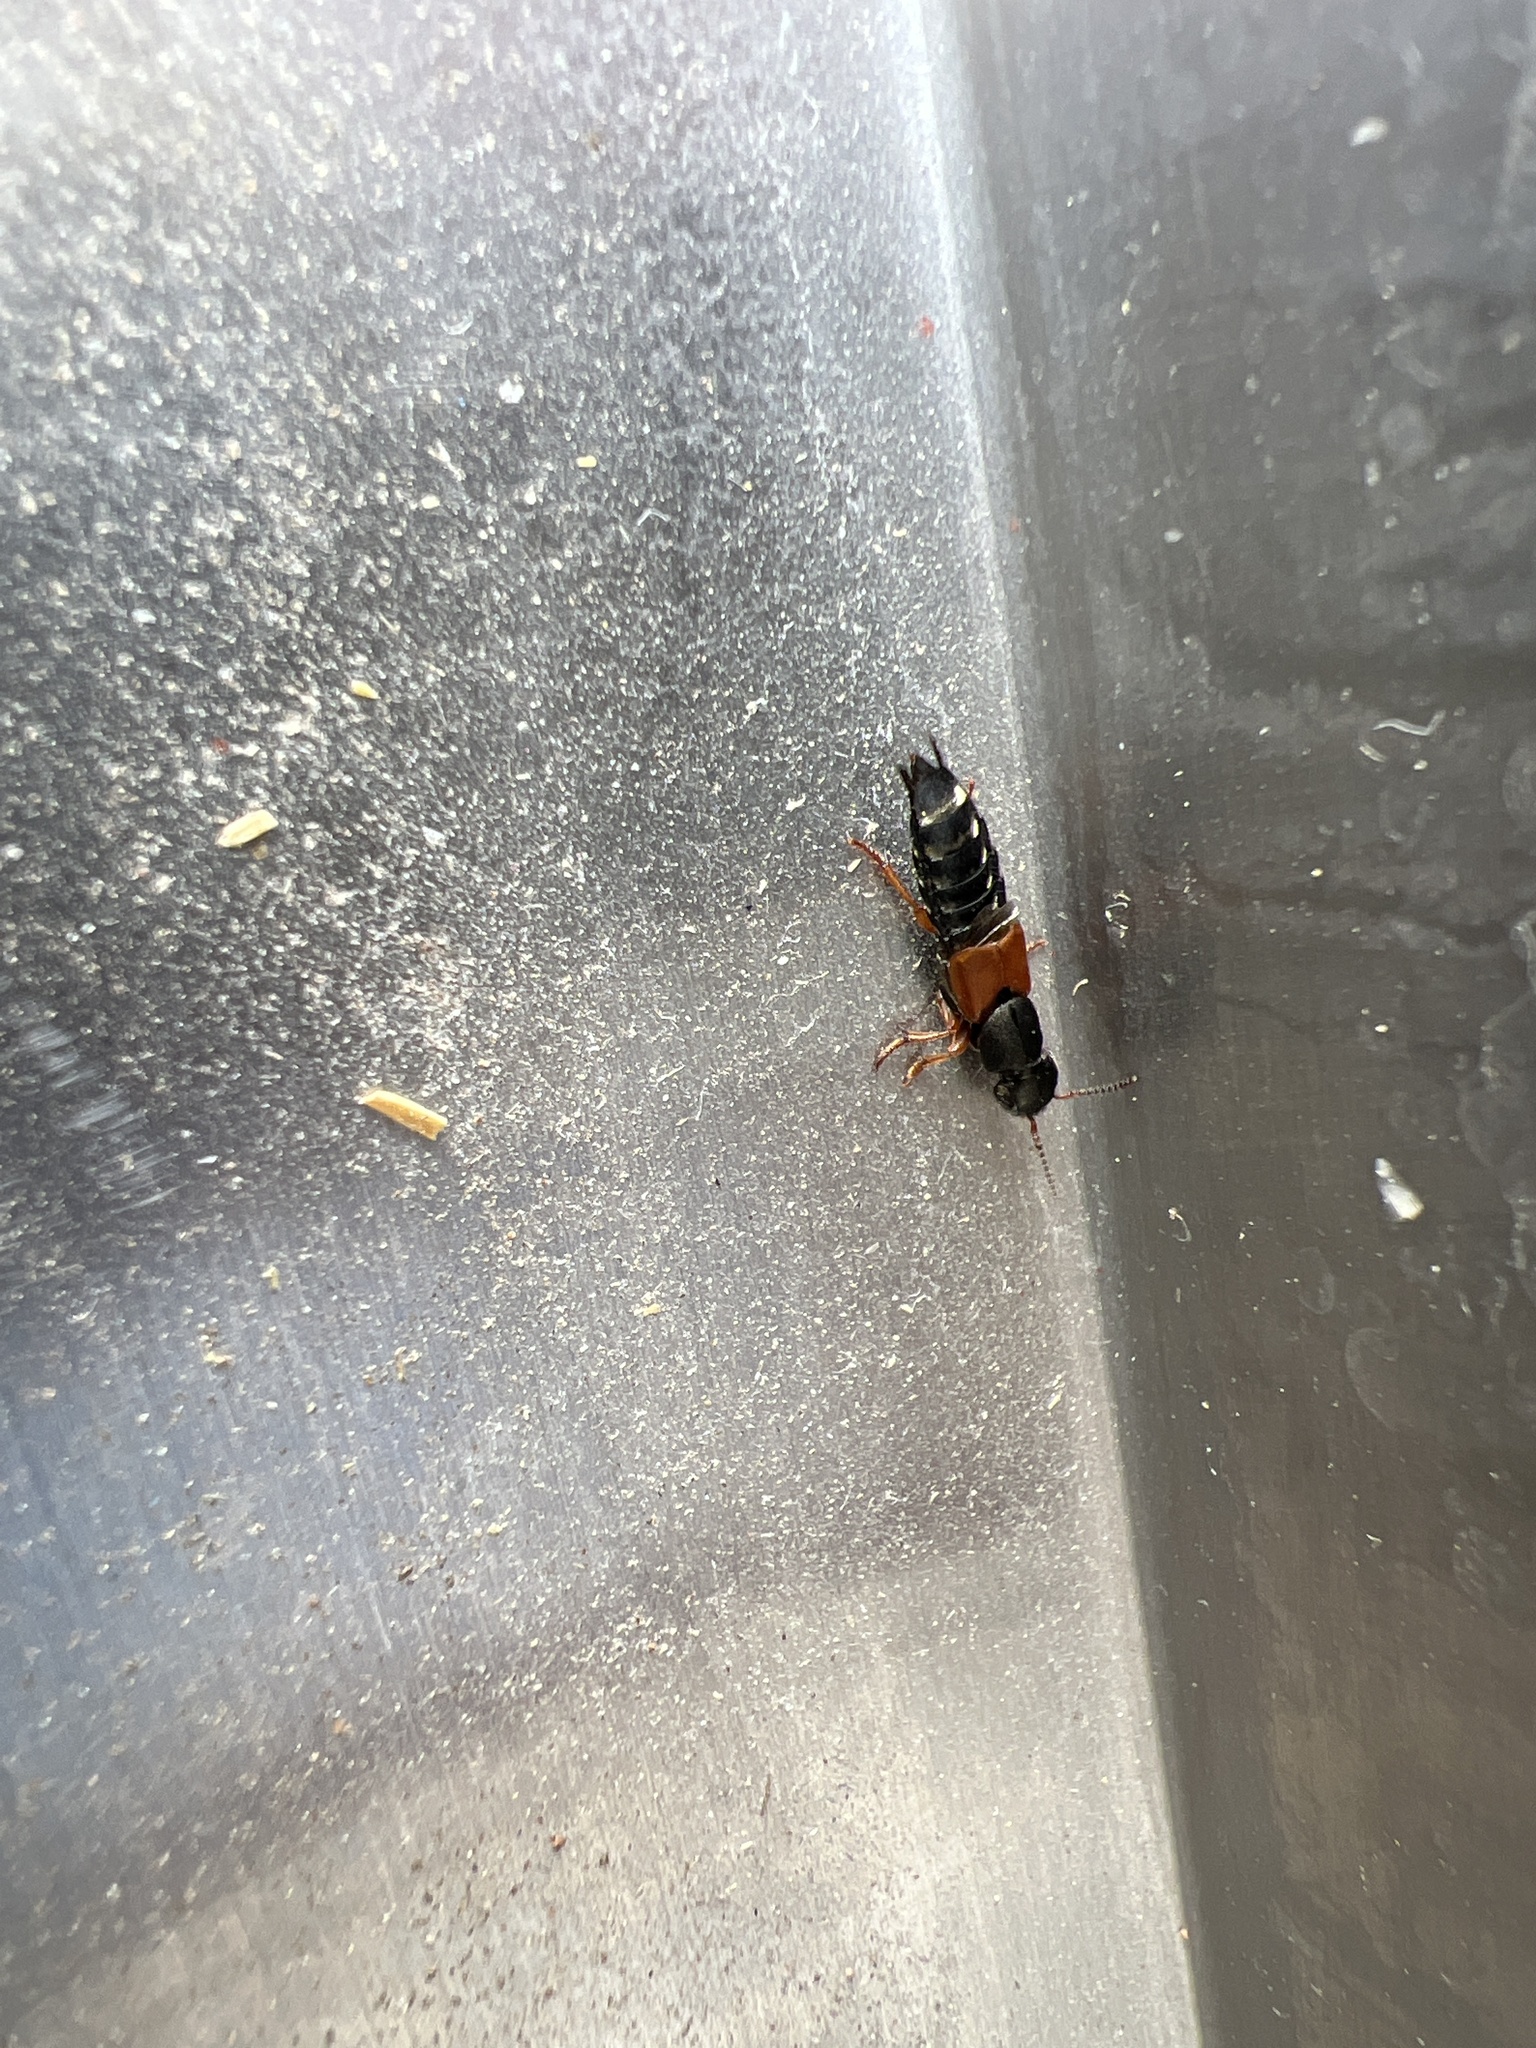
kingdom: Animalia
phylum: Arthropoda
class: Insecta
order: Coleoptera
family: Staphylinidae
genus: Platydracus
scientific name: Platydracus stercorarius
